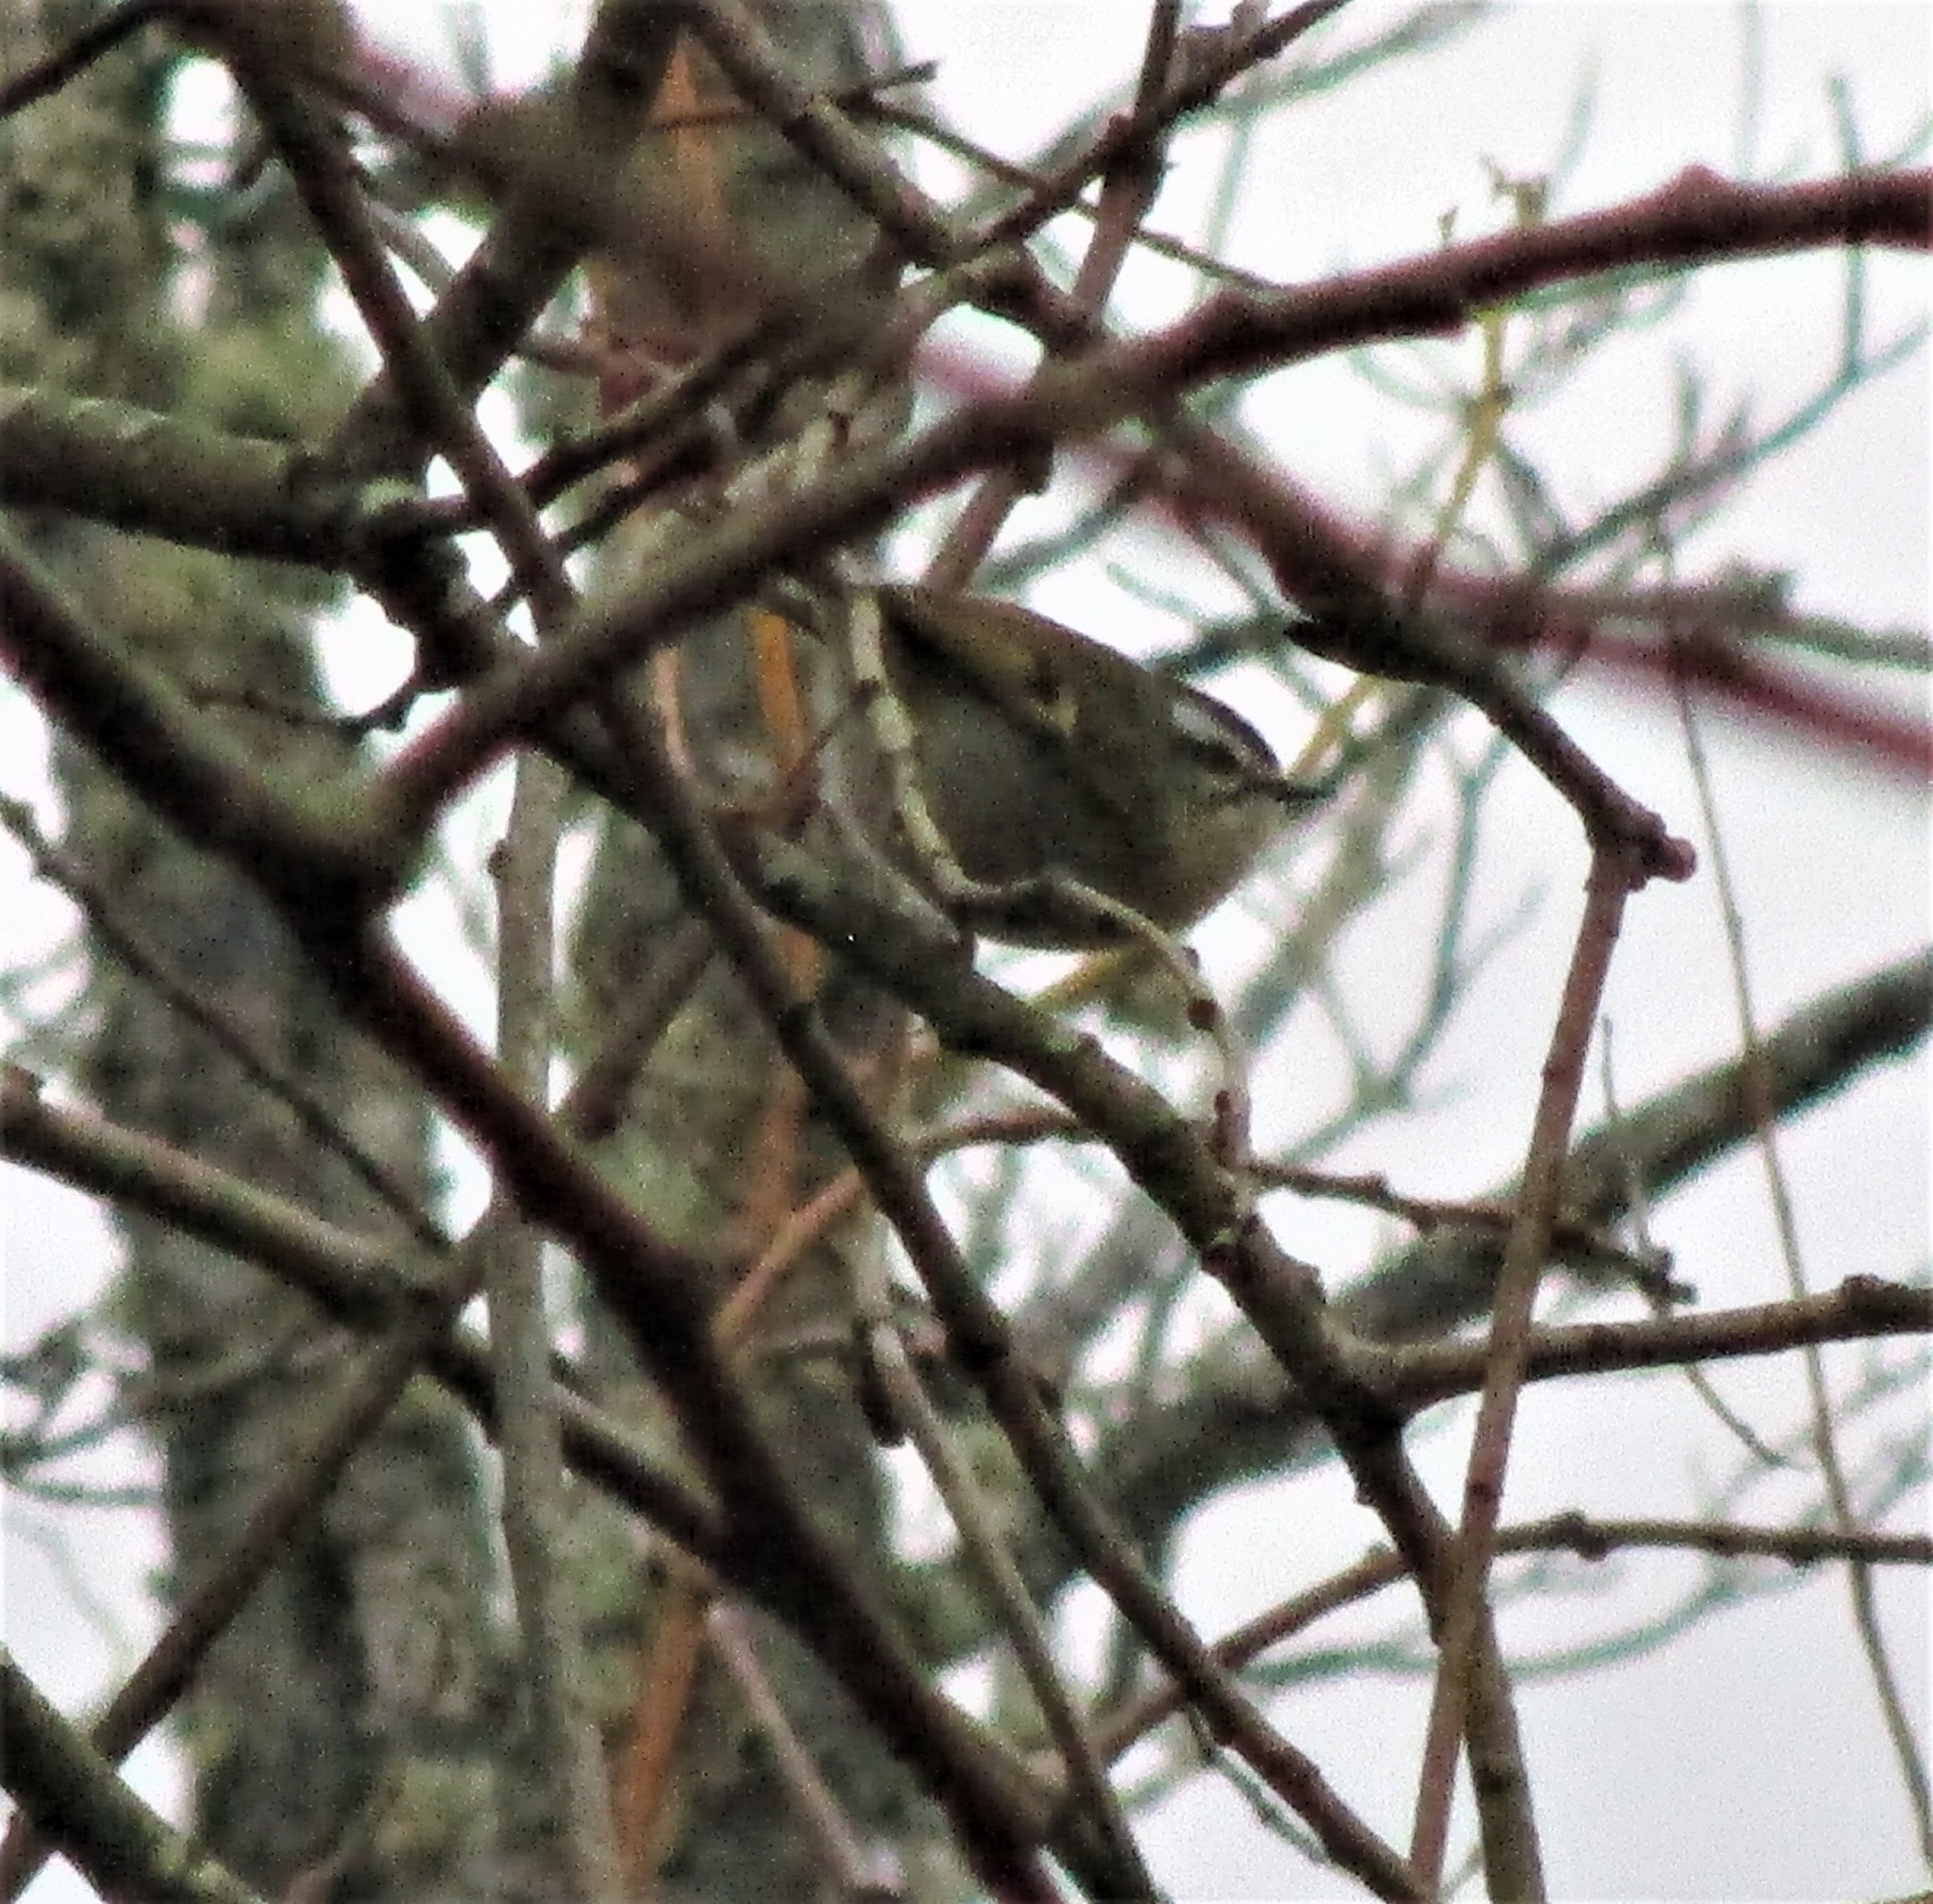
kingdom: Animalia
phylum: Chordata
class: Aves
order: Passeriformes
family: Regulidae
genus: Regulus
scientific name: Regulus satrapa
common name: Golden-crowned kinglet
